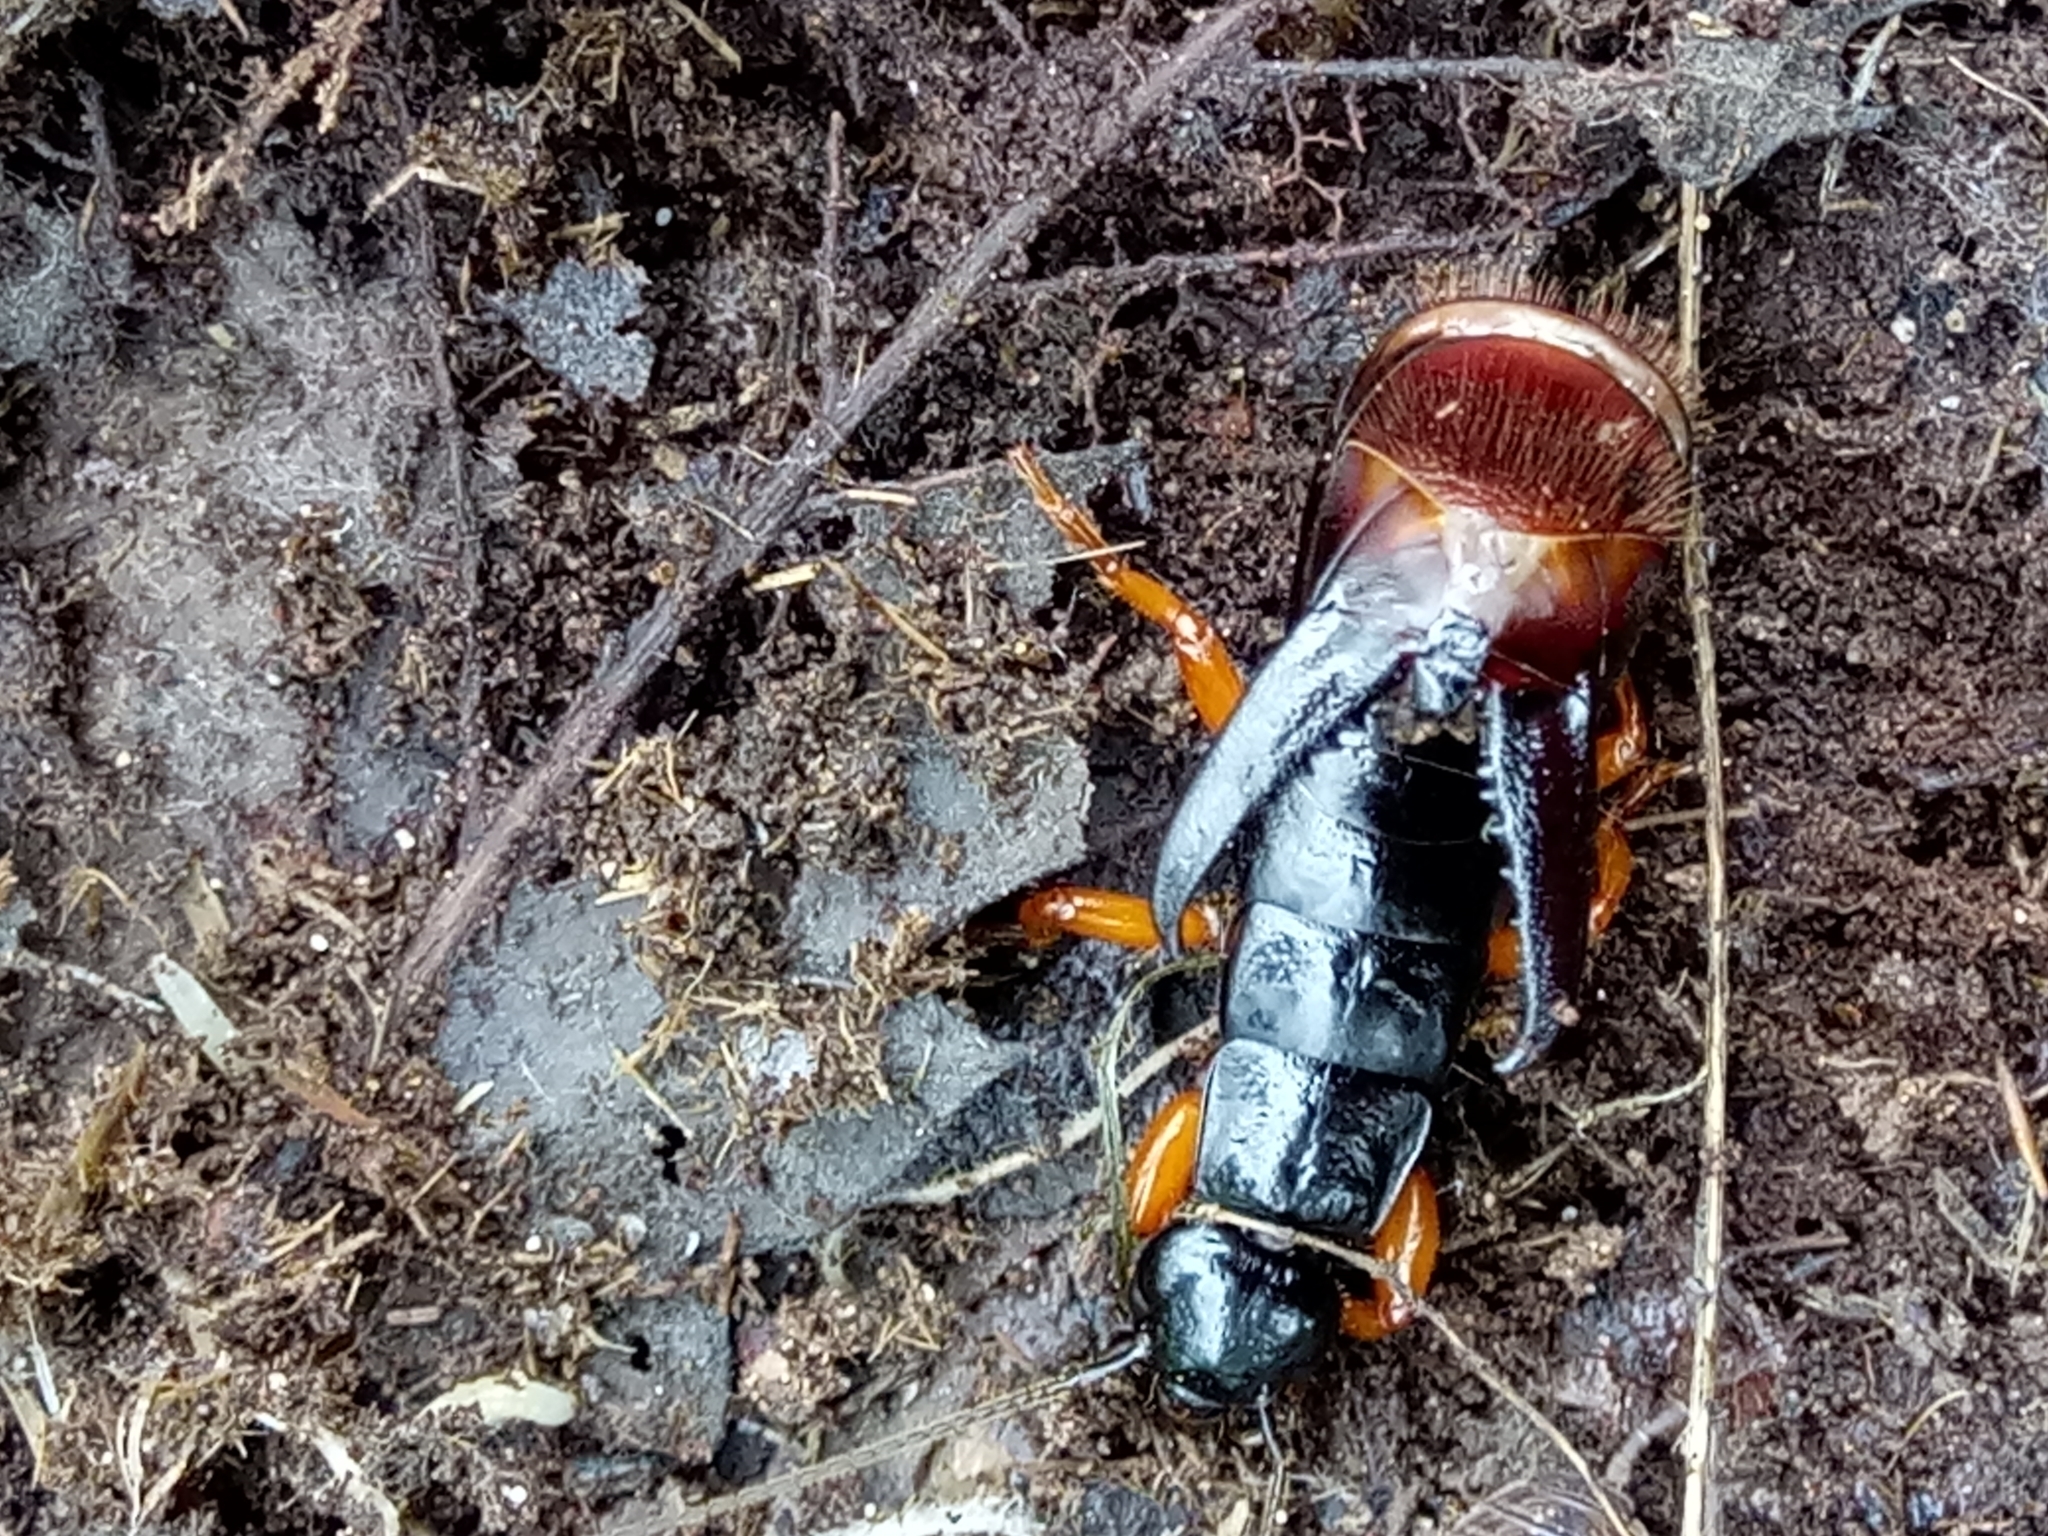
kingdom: Animalia
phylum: Arthropoda
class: Insecta
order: Dermaptera
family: Anisolabididae
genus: Aborolabis
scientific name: Aborolabis mordax
